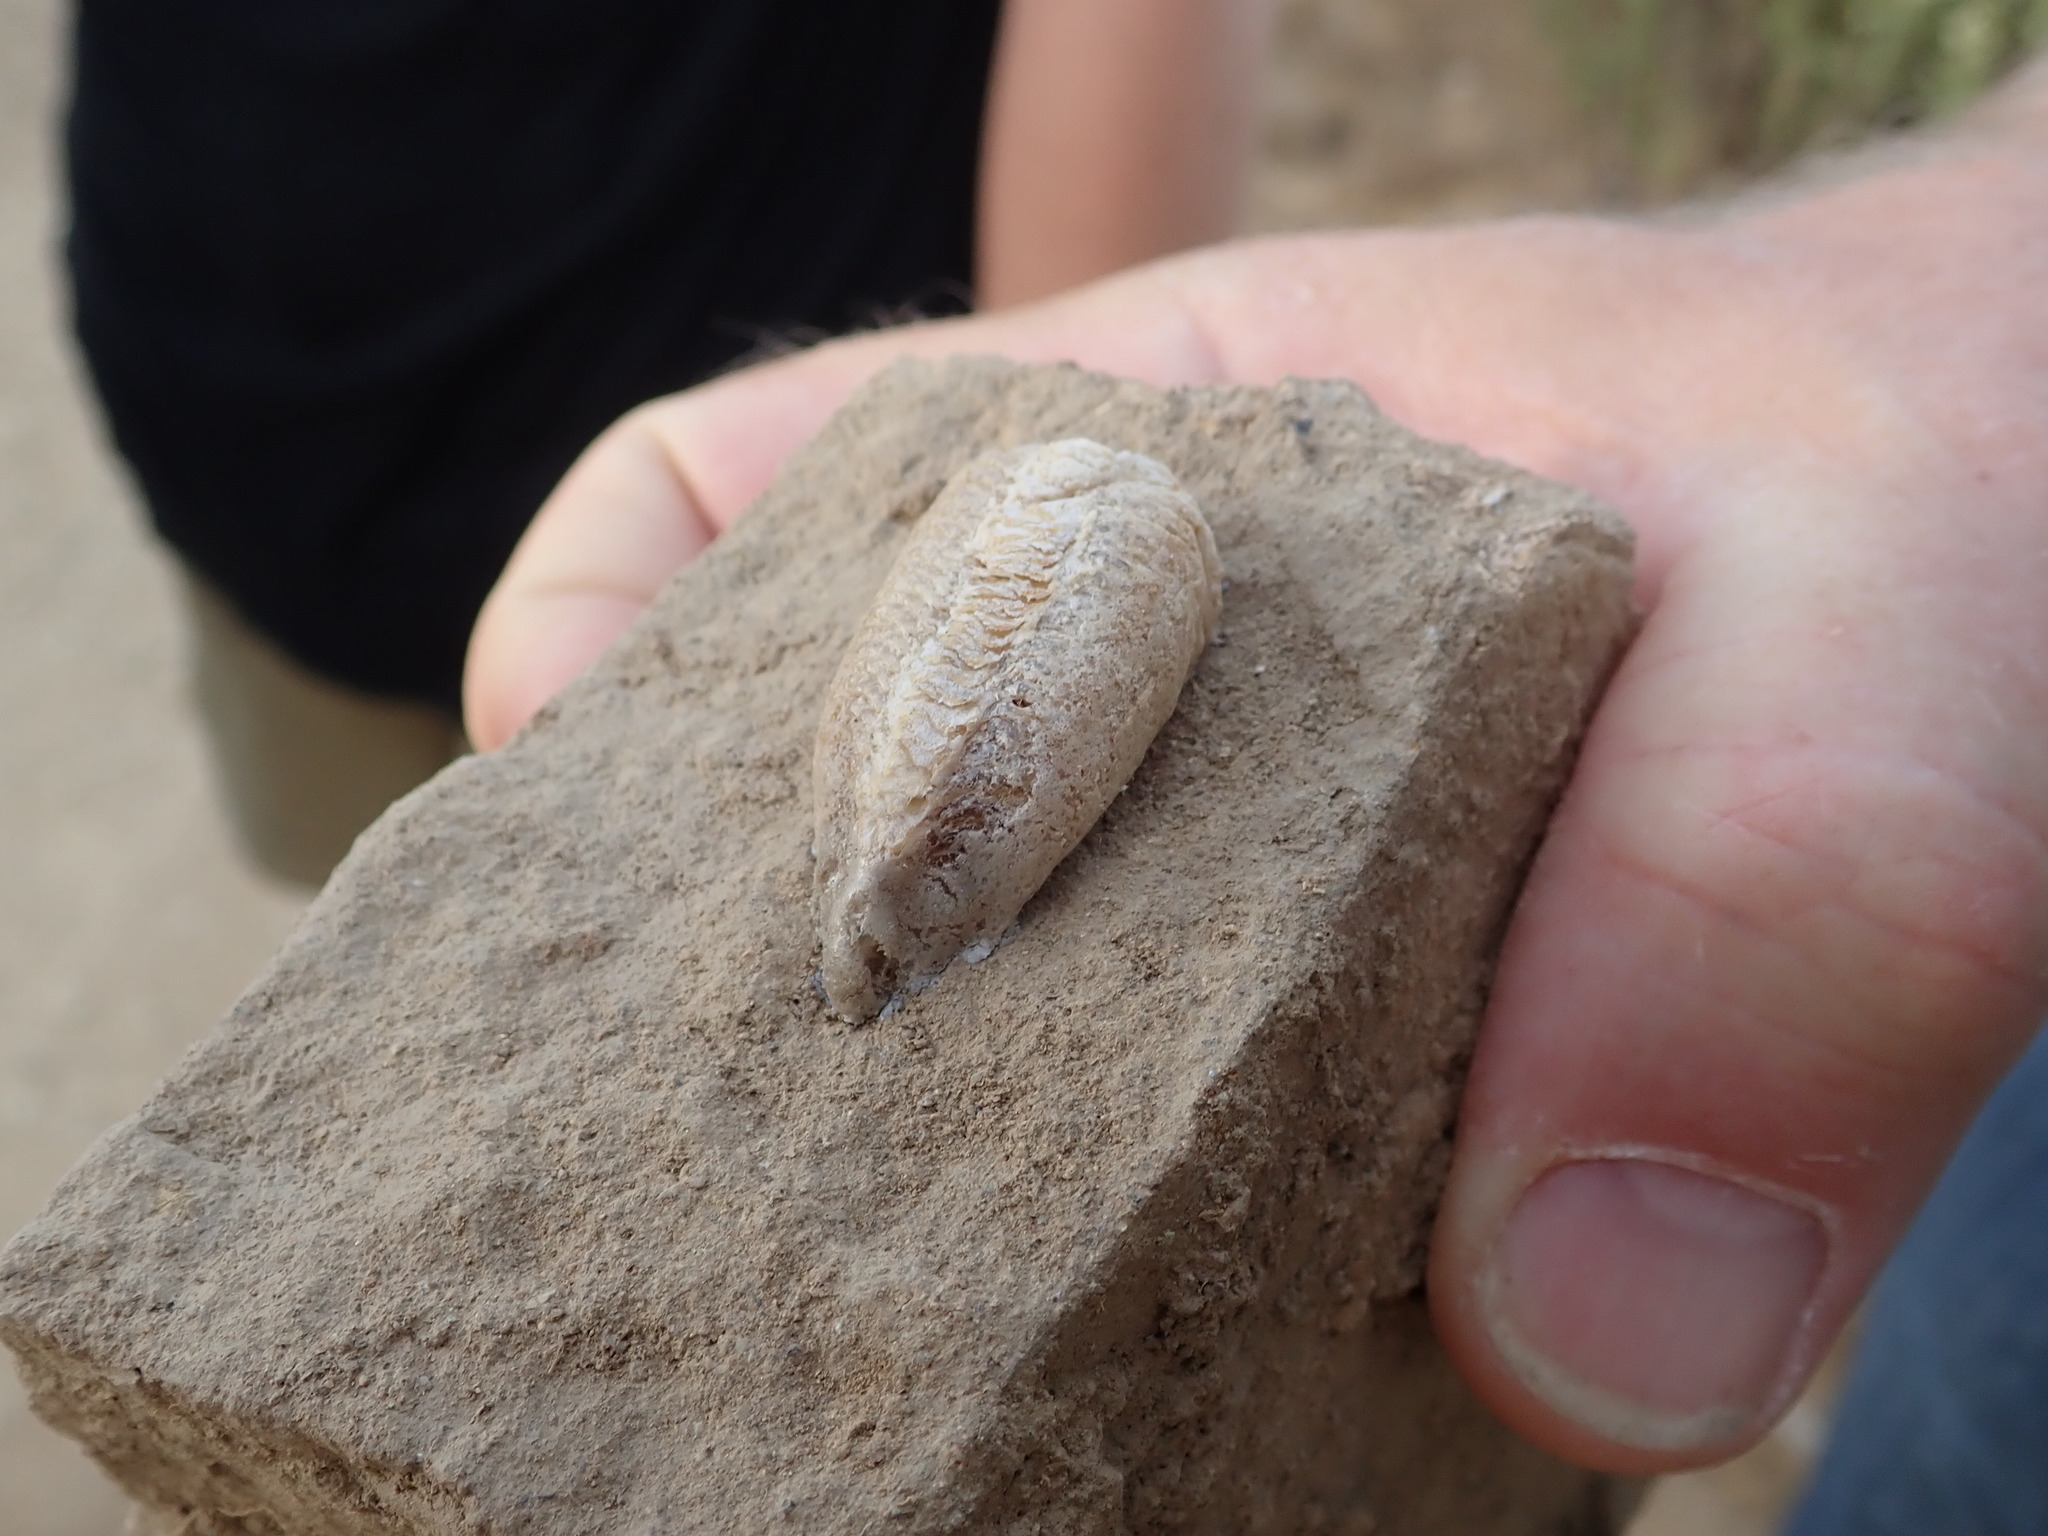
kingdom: Animalia
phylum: Arthropoda
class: Insecta
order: Mantodea
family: Mantidae
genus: Mantis
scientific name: Mantis religiosa
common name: Praying mantis
